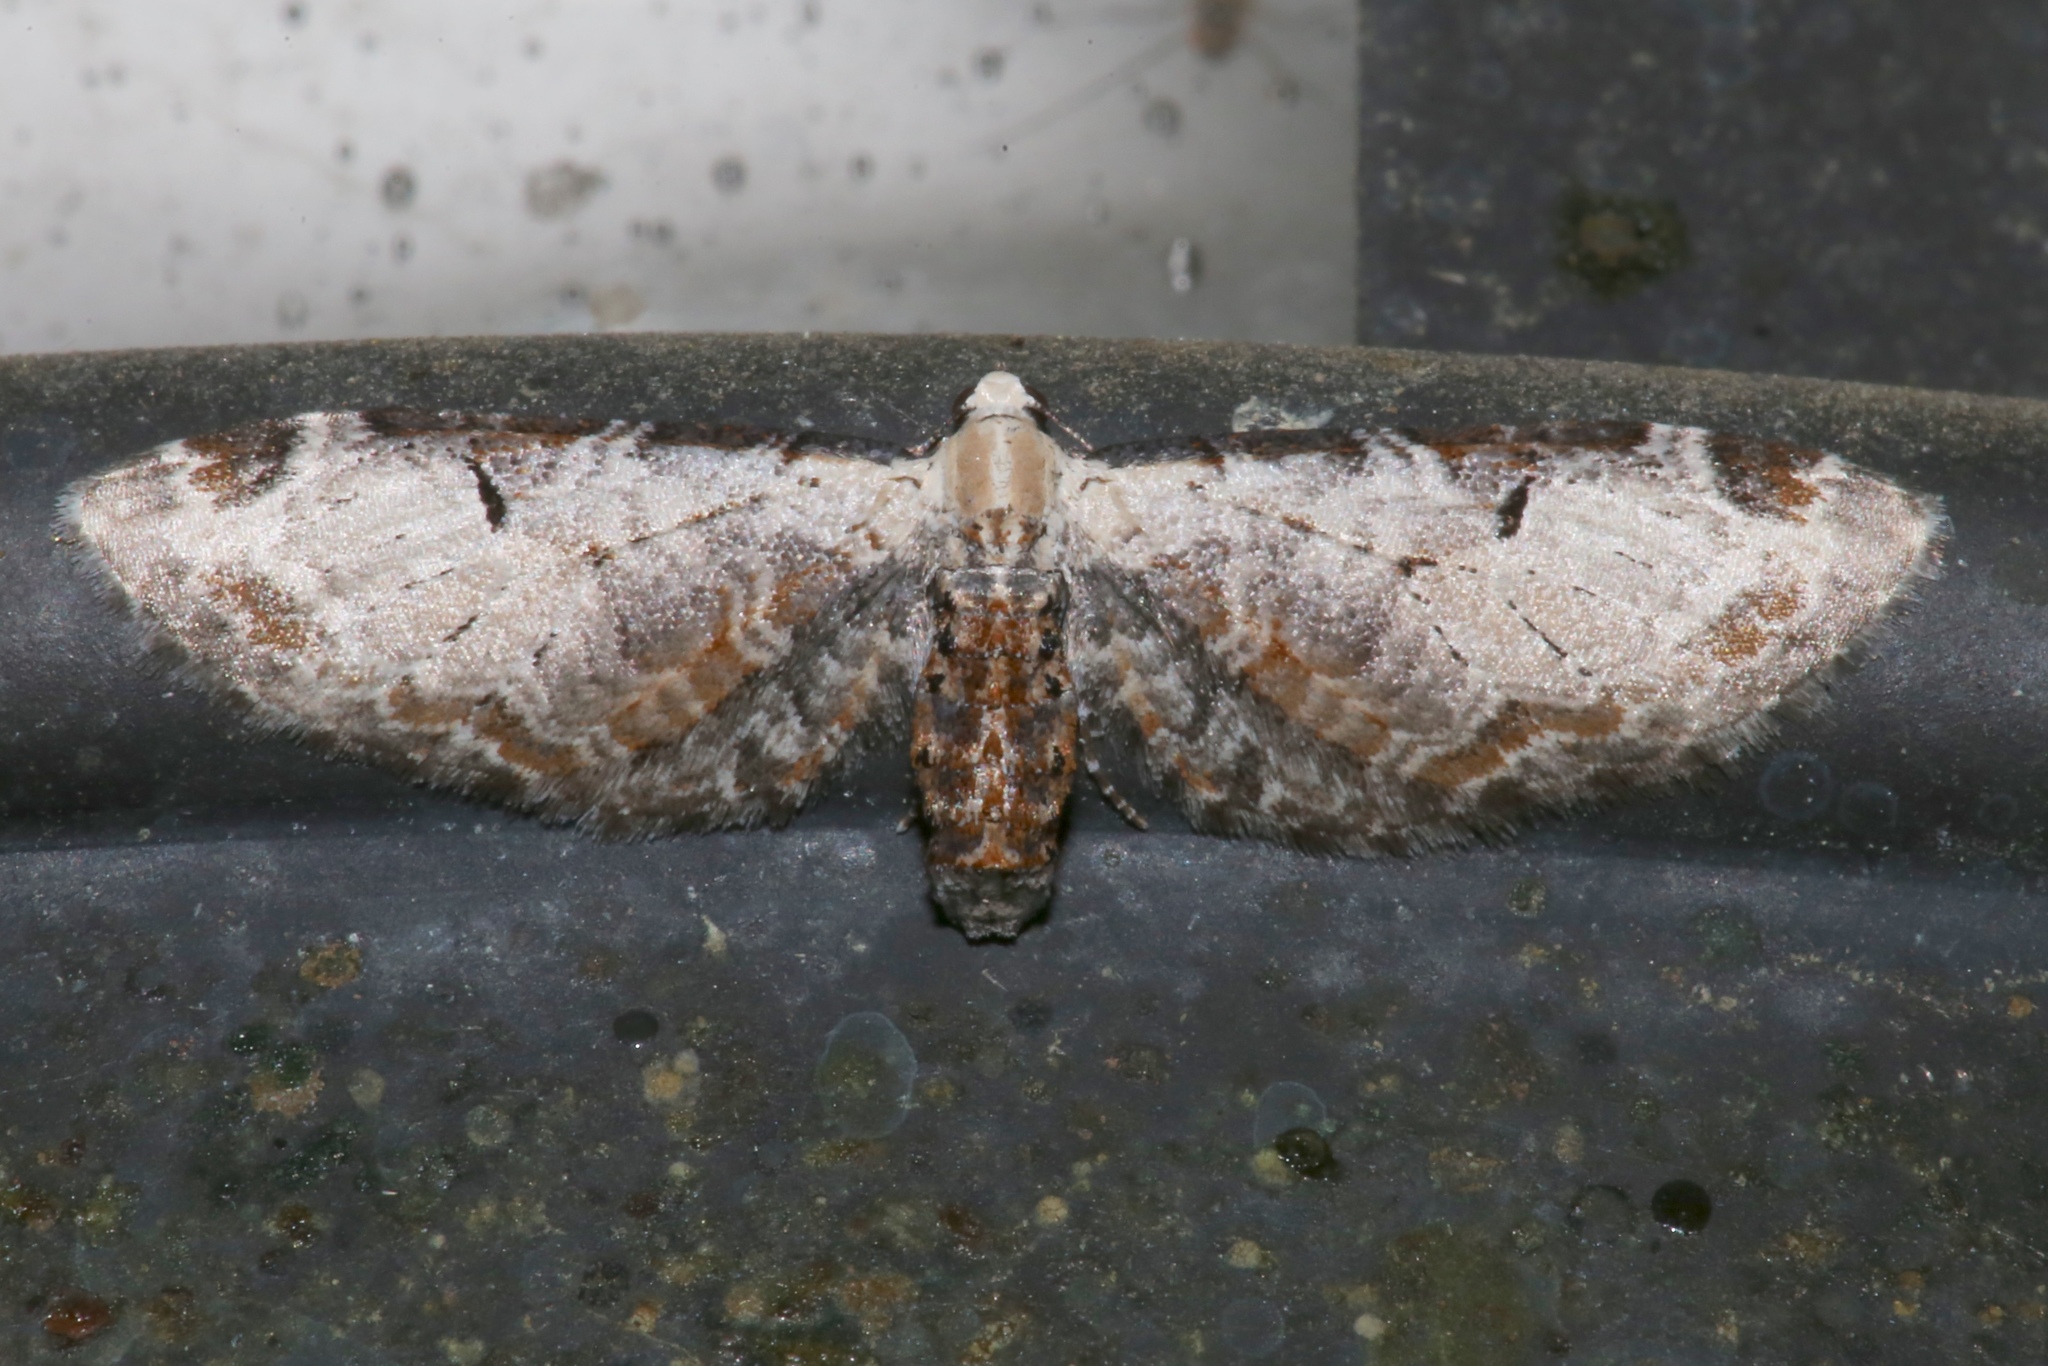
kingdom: Animalia
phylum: Arthropoda
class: Insecta
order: Lepidoptera
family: Geometridae
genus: Eupithecia
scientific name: Eupithecia ravocostaliata
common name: Great varigated pug
